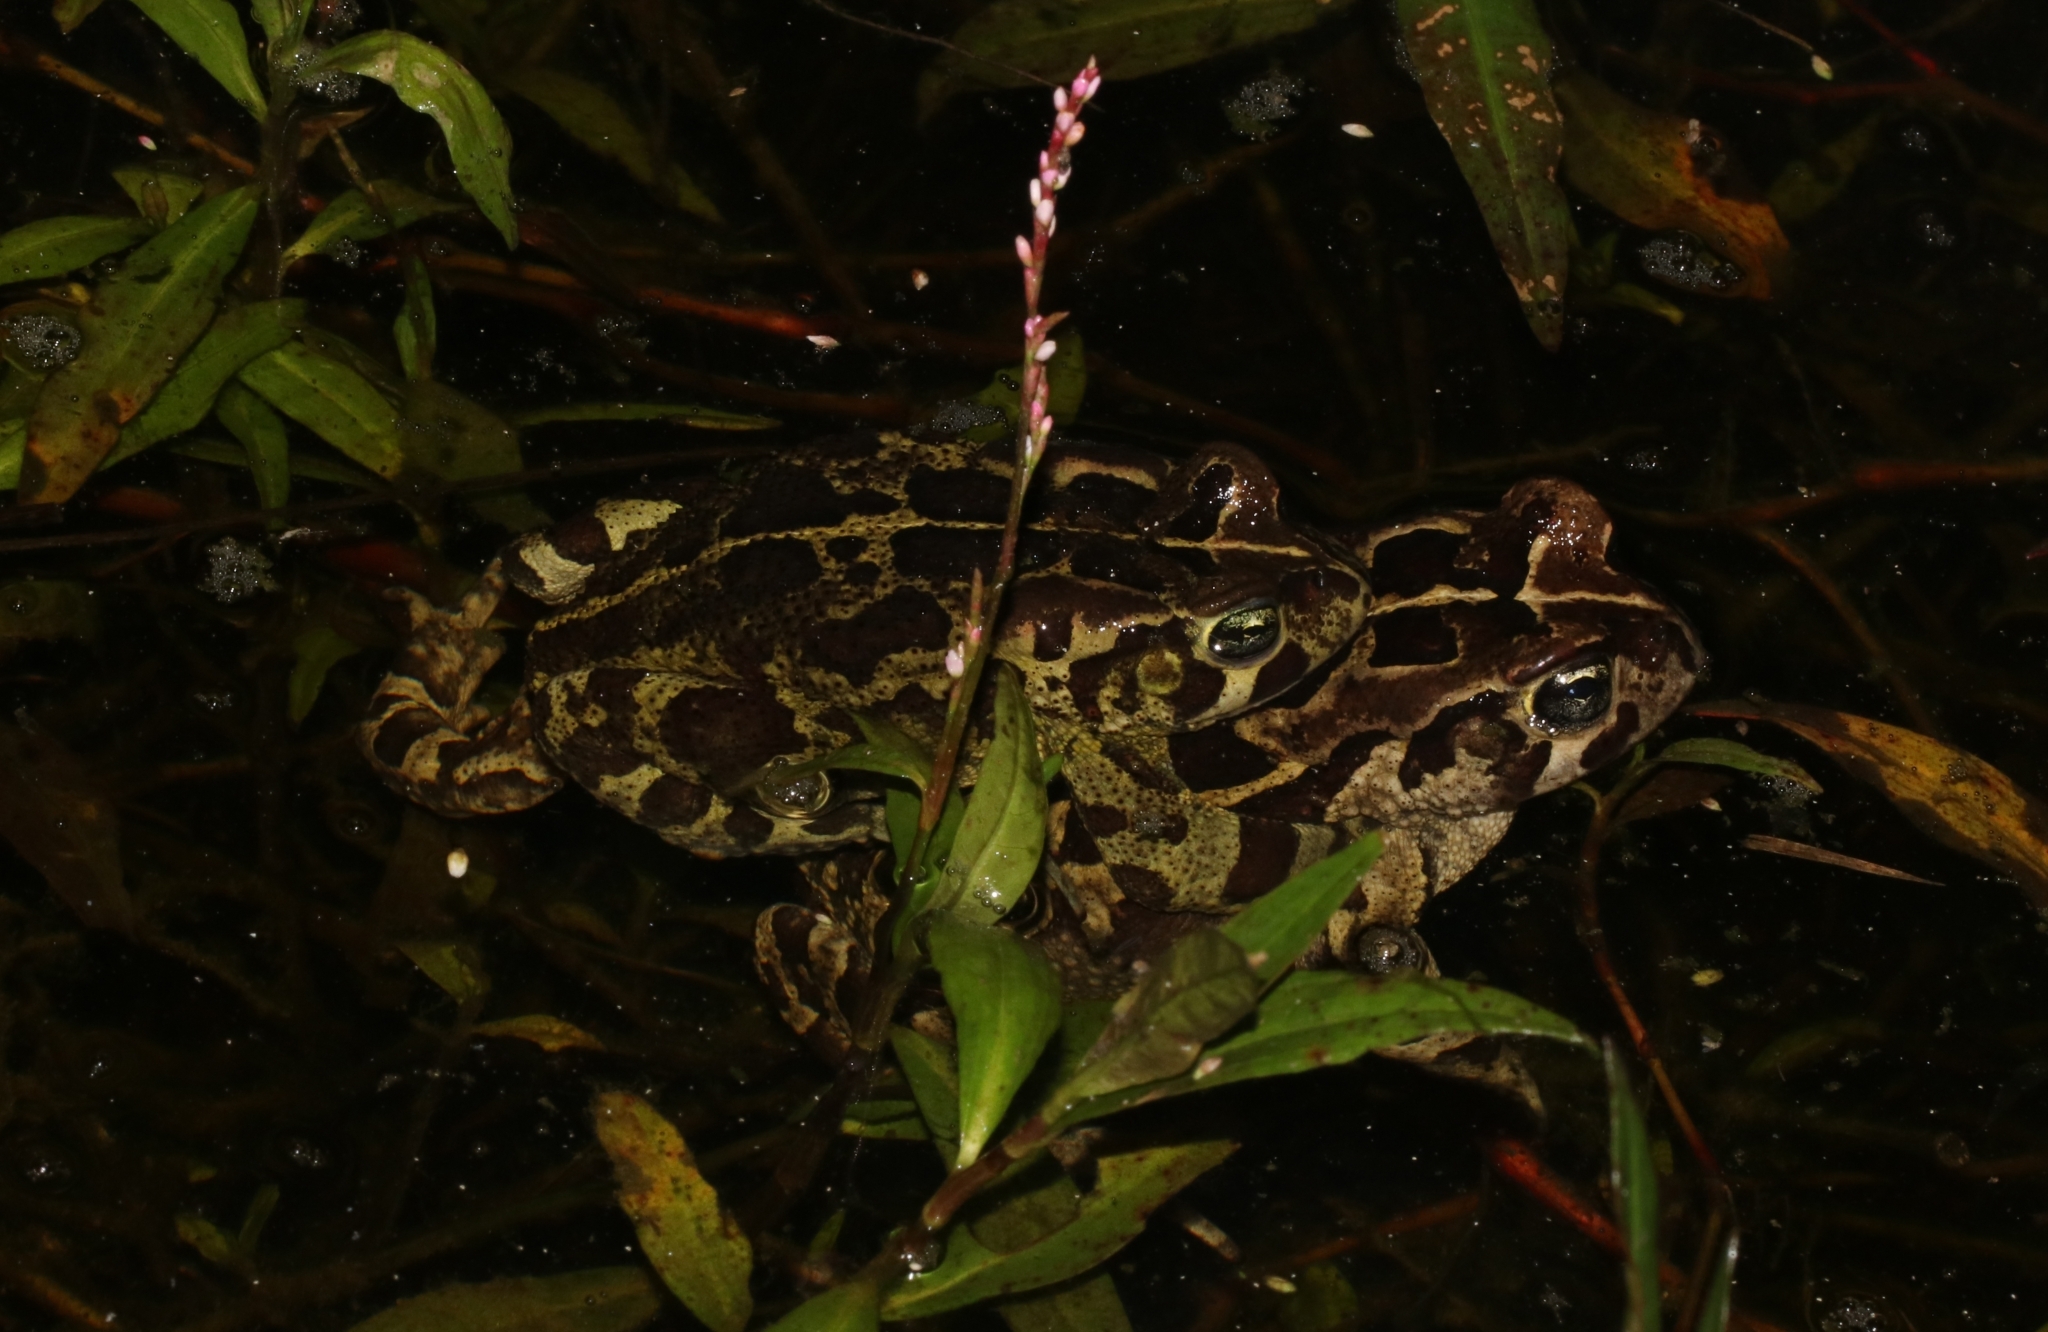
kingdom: Animalia
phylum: Chordata
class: Amphibia
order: Anura
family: Bufonidae
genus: Sclerophrys
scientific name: Sclerophrys pantherina
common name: Panther toad
